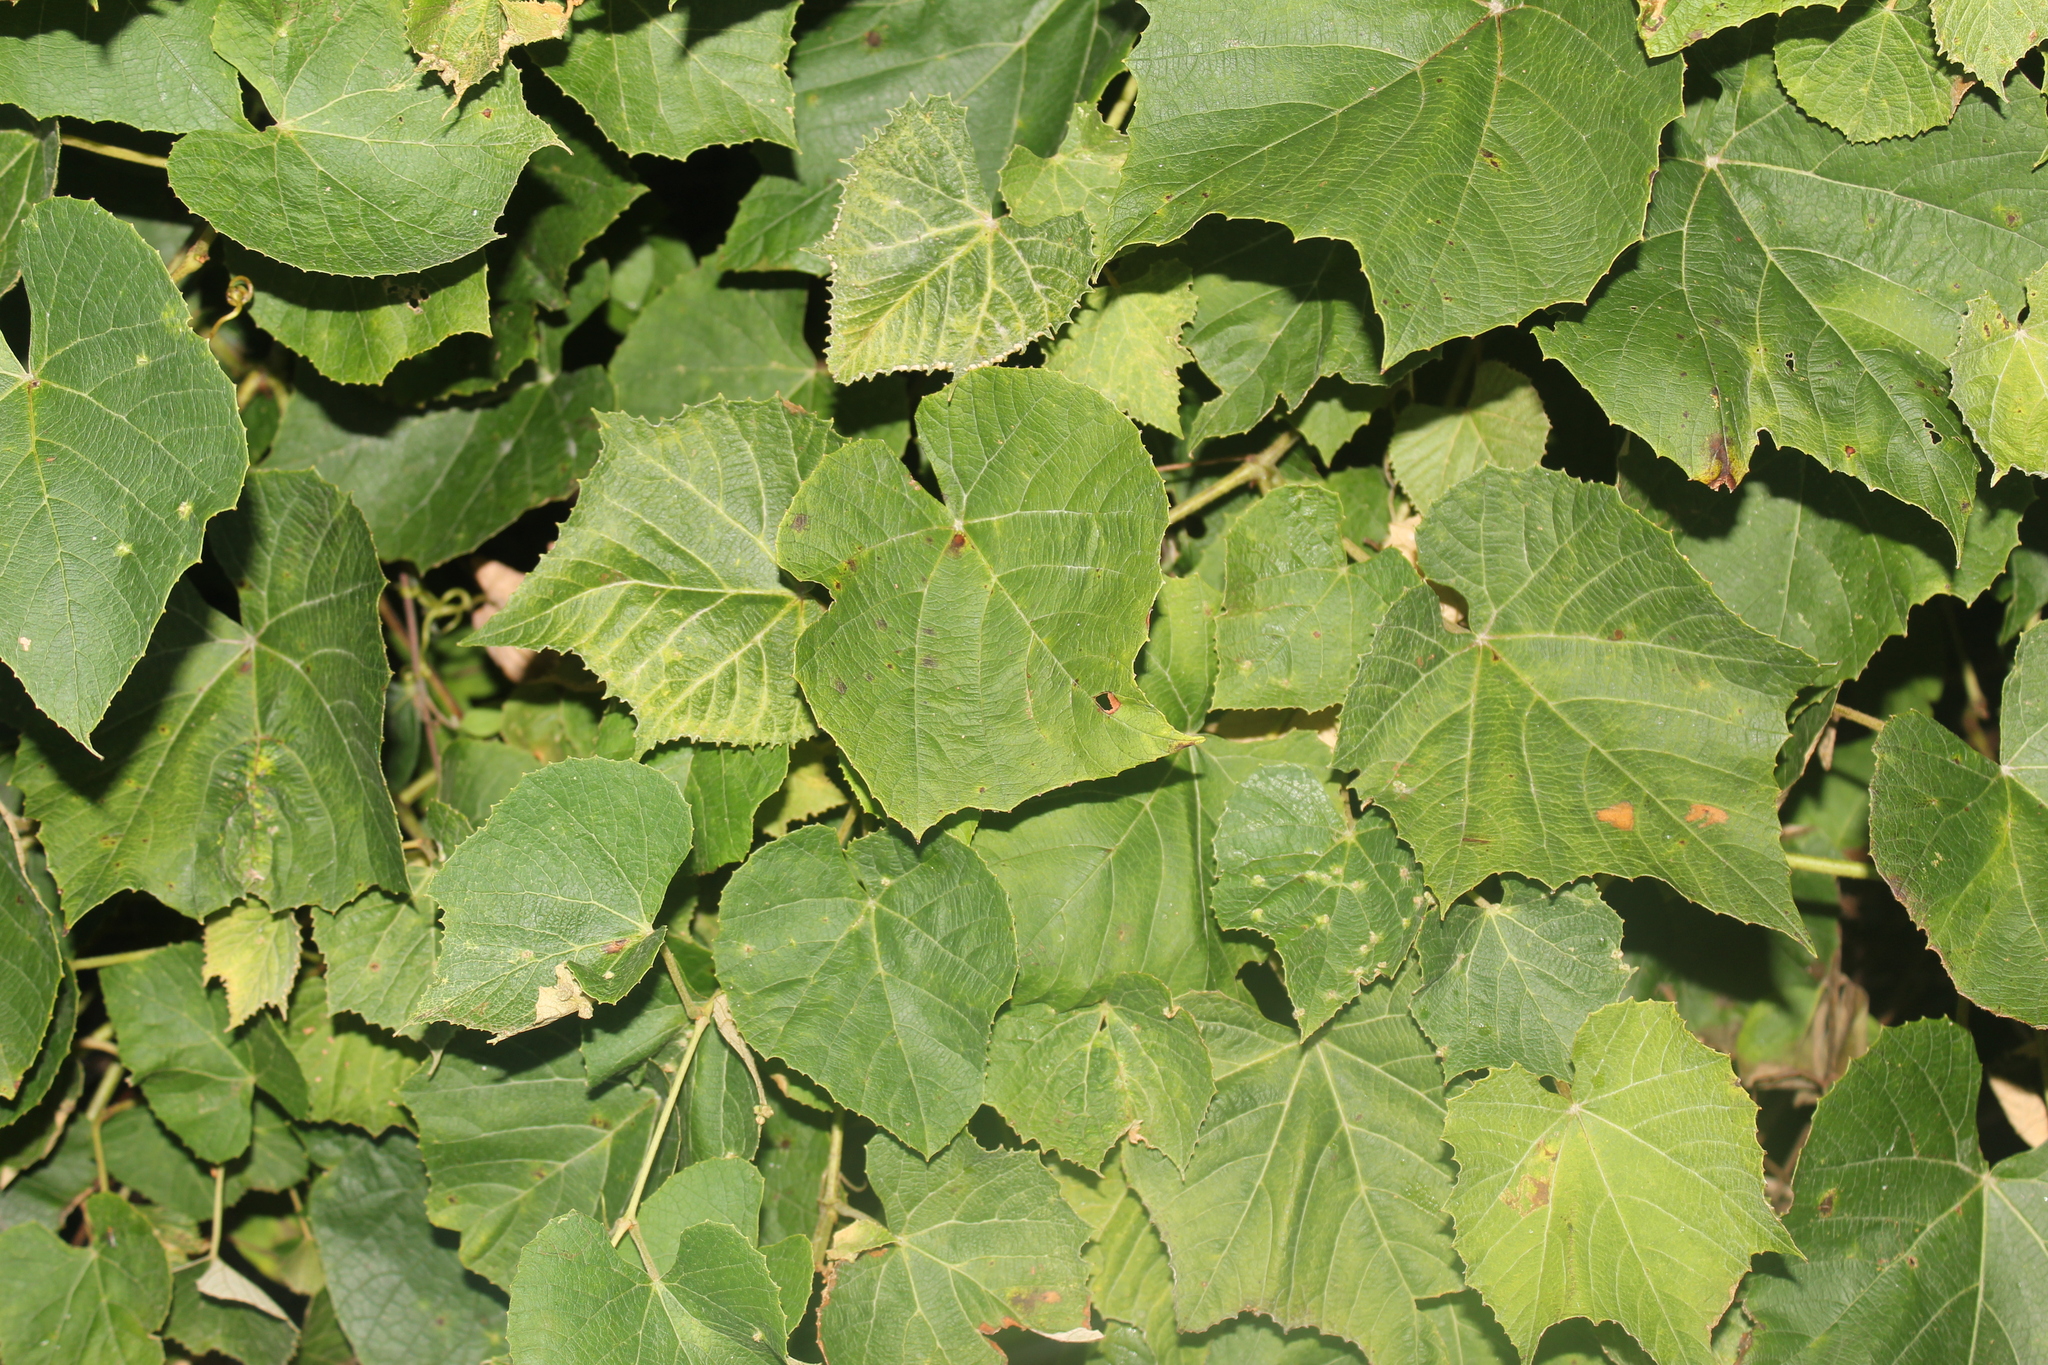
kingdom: Plantae
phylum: Tracheophyta
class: Magnoliopsida
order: Vitales
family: Vitaceae
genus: Vitis
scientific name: Vitis labrusca
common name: Concord grape
